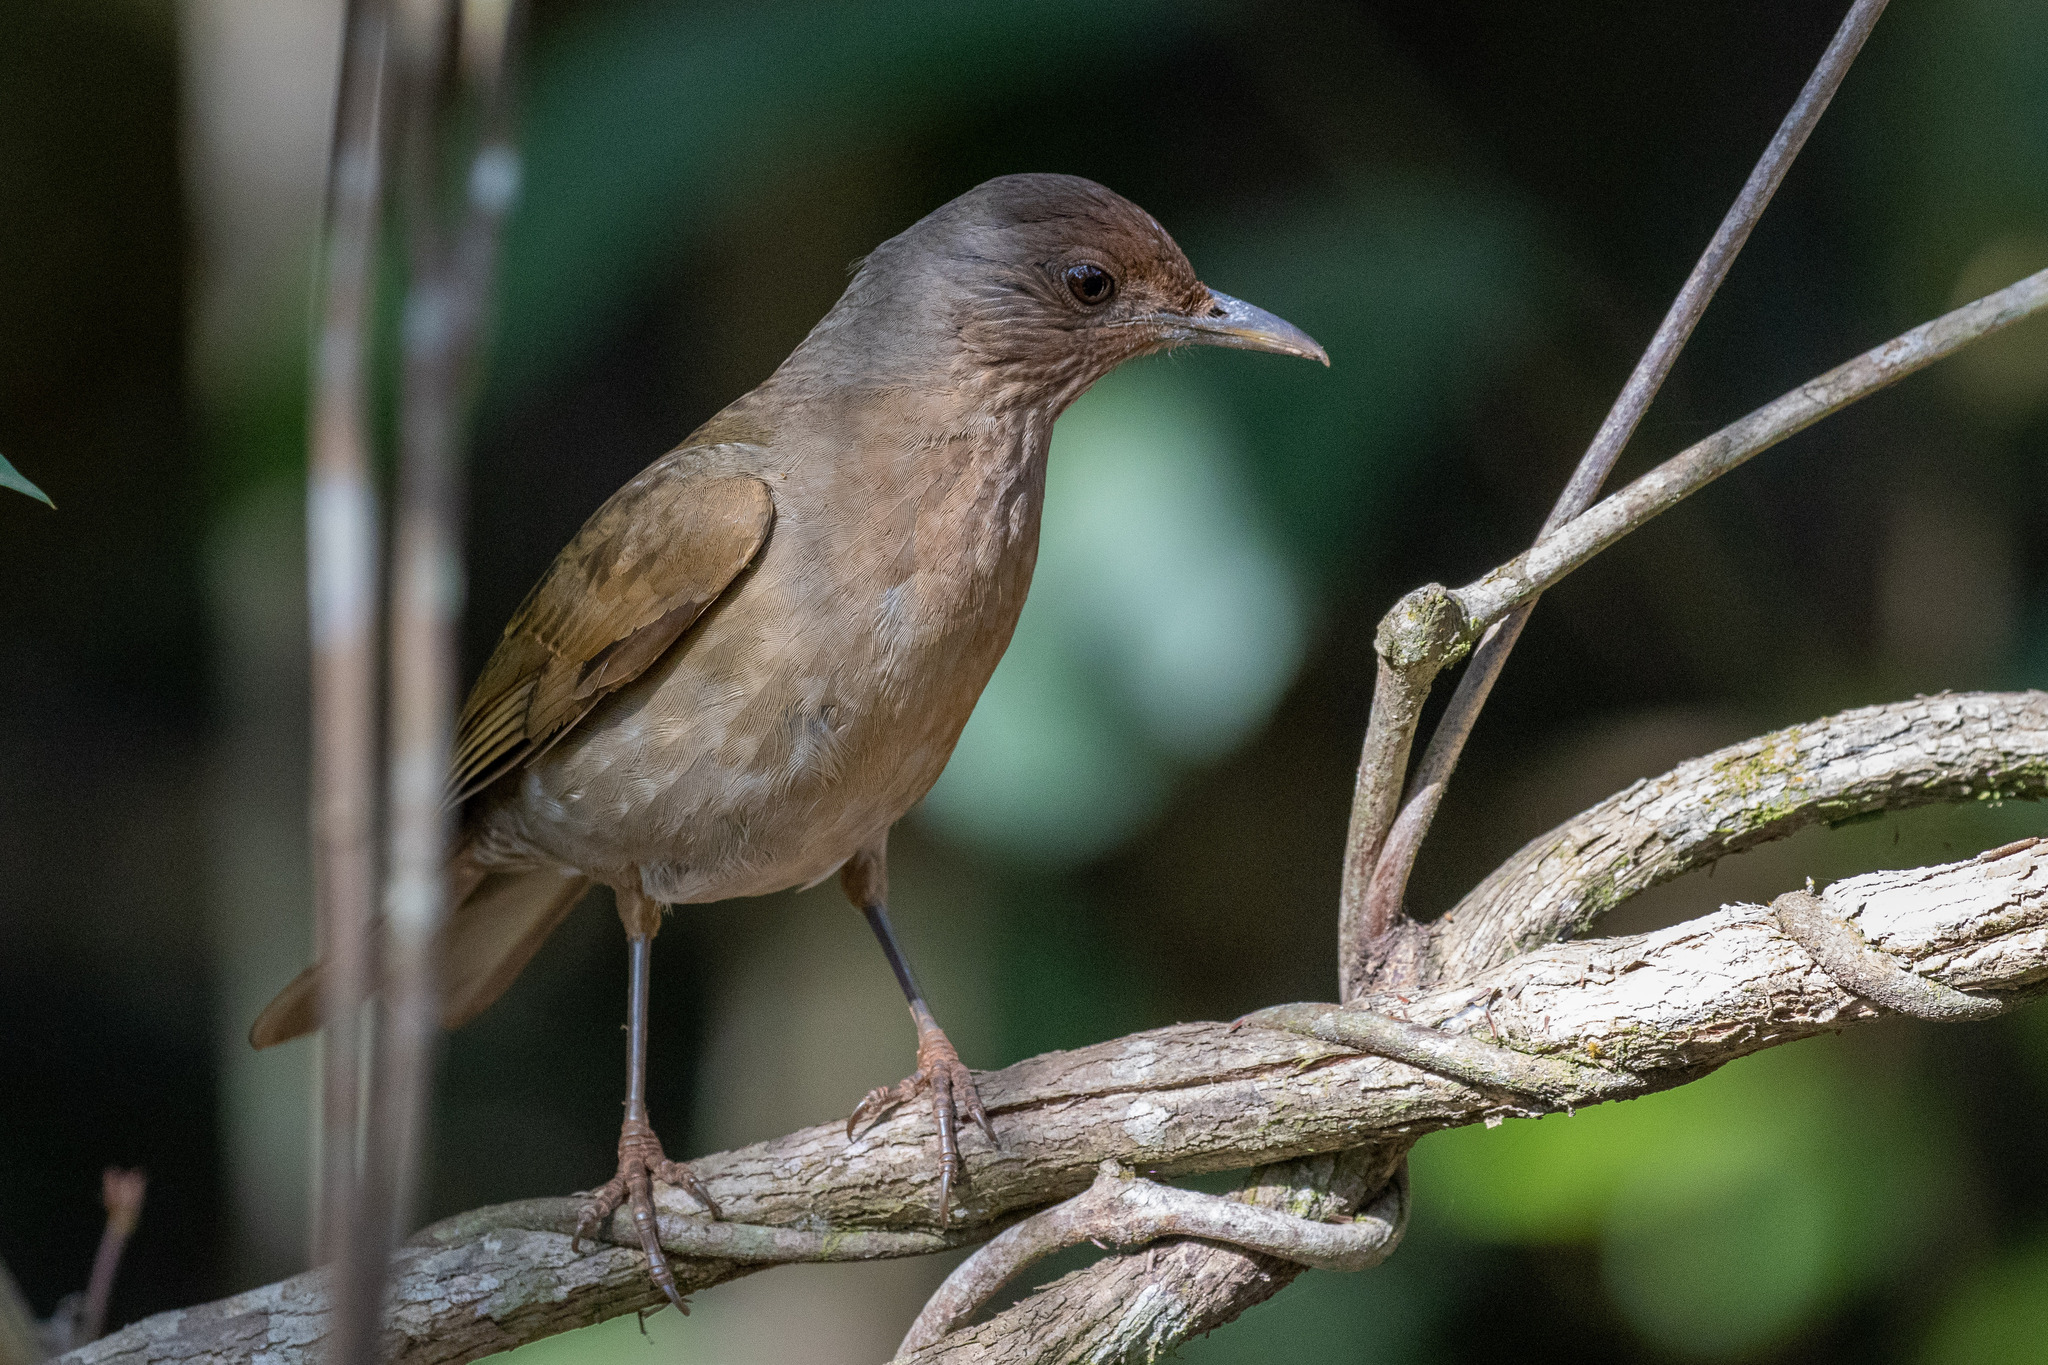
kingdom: Animalia
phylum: Chordata
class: Aves
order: Passeriformes
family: Turdidae
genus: Turdus
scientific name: Turdus leucomelas
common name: Pale-breasted thrush
